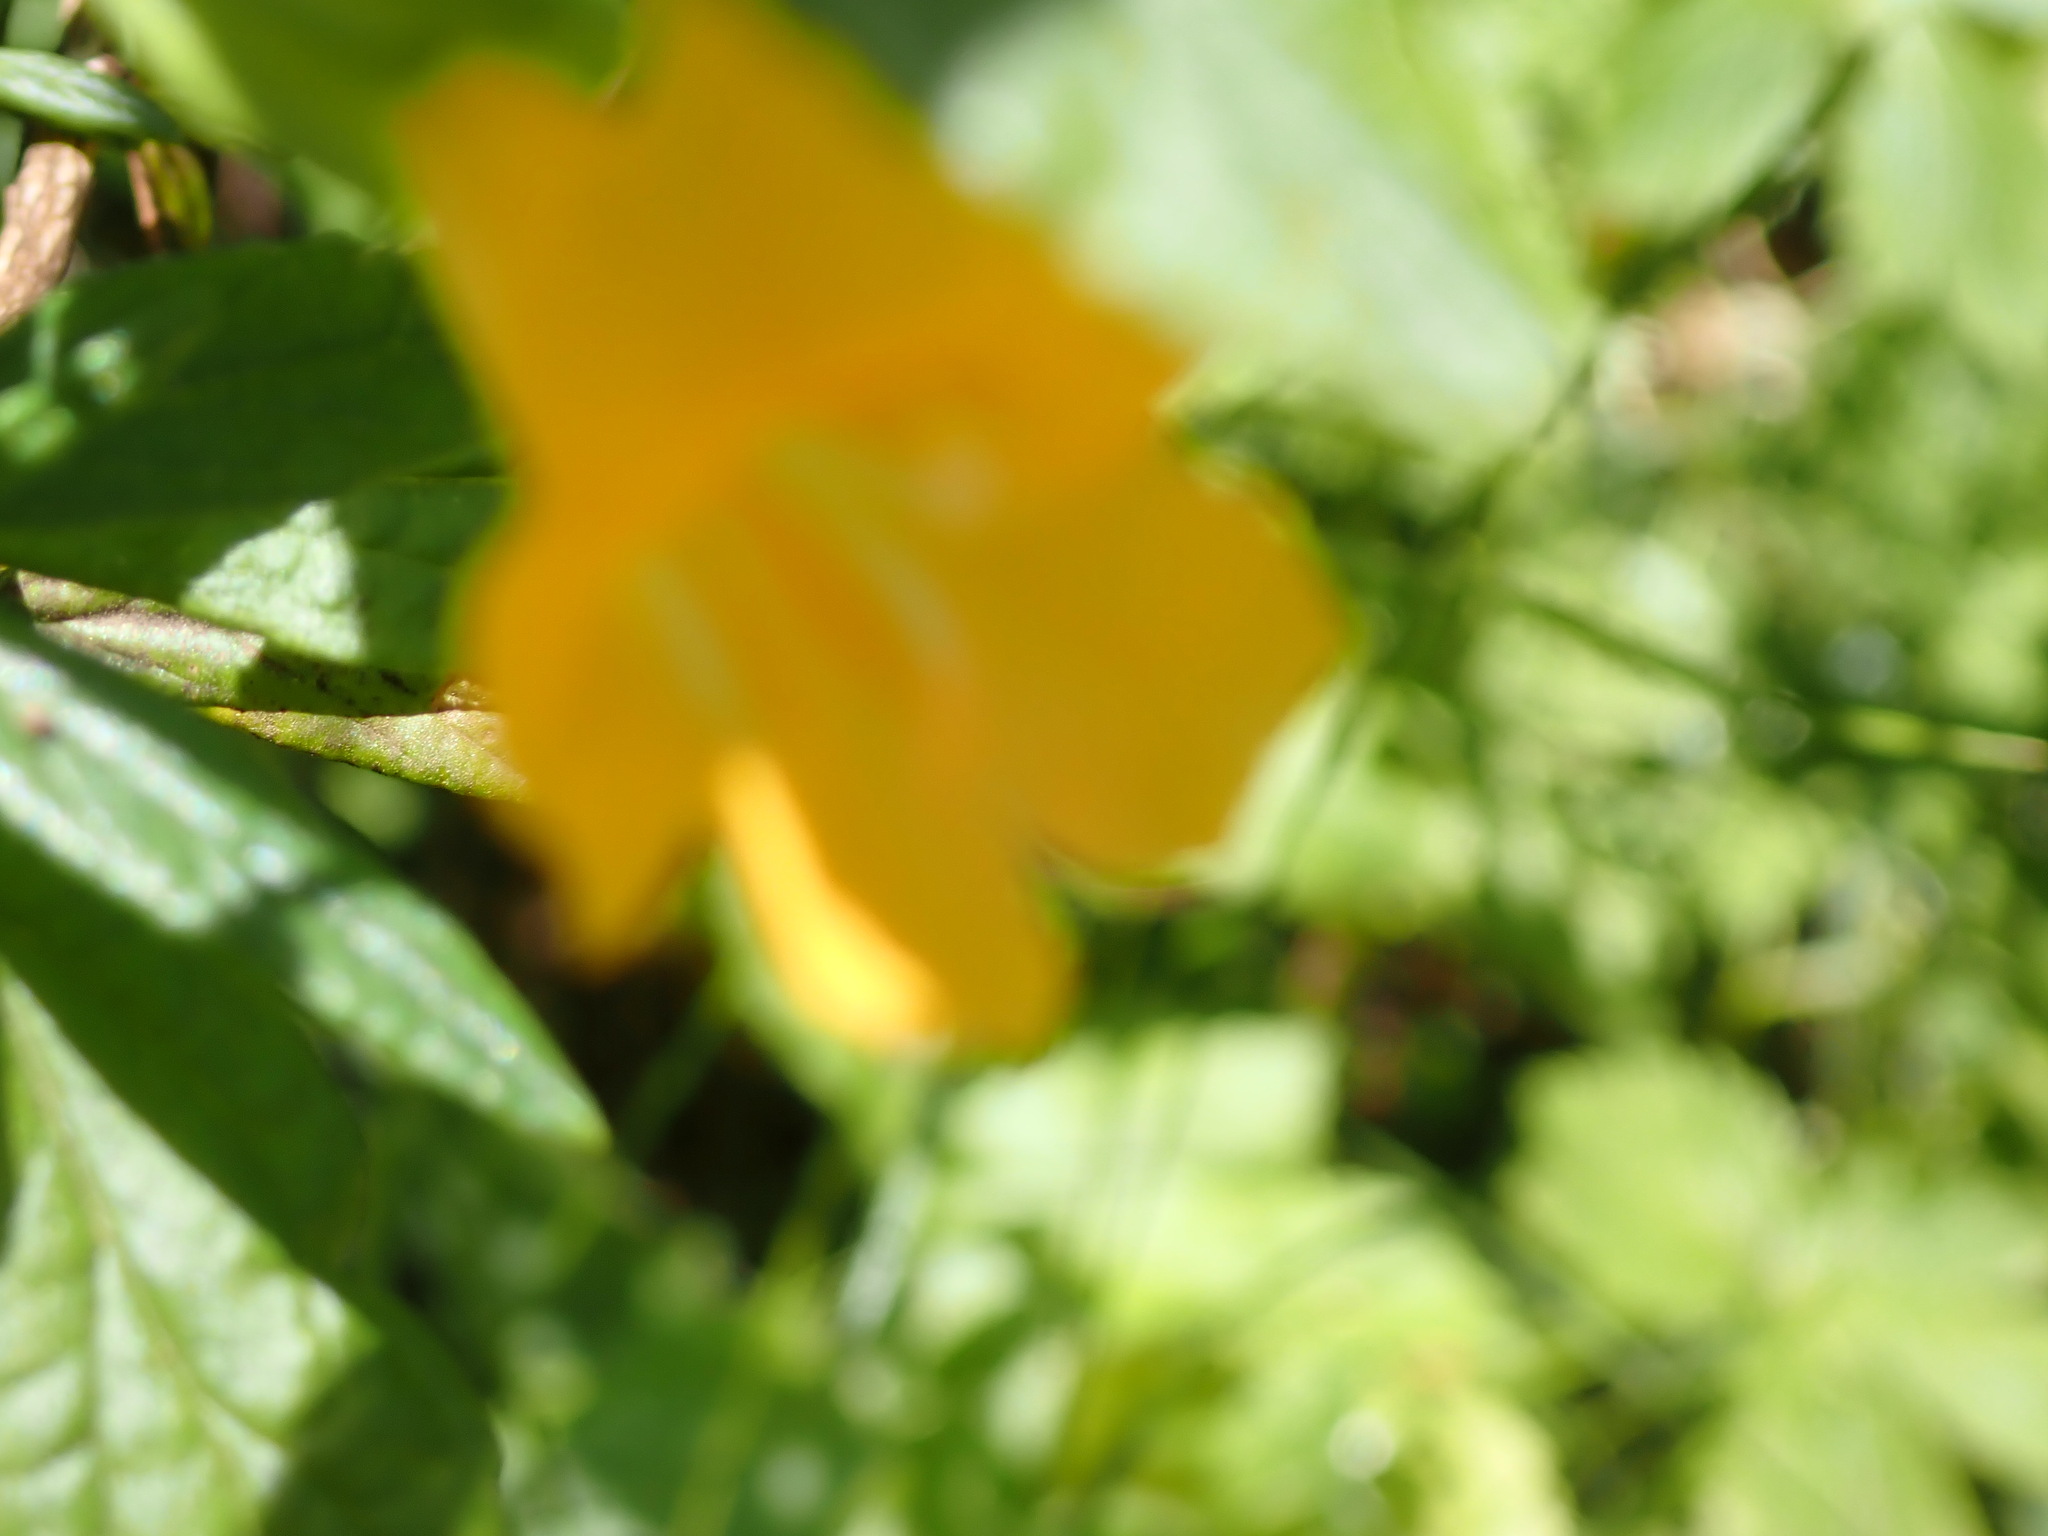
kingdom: Plantae
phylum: Tracheophyta
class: Magnoliopsida
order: Lamiales
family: Phrymaceae
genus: Diplacus
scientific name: Diplacus aurantiacus
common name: Bush monkey-flower
